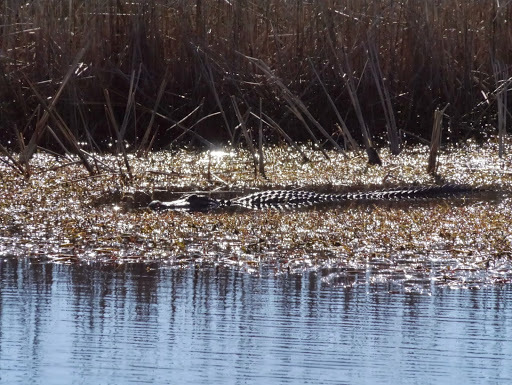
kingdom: Animalia
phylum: Chordata
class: Crocodylia
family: Alligatoridae
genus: Alligator
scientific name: Alligator mississippiensis
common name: American alligator
